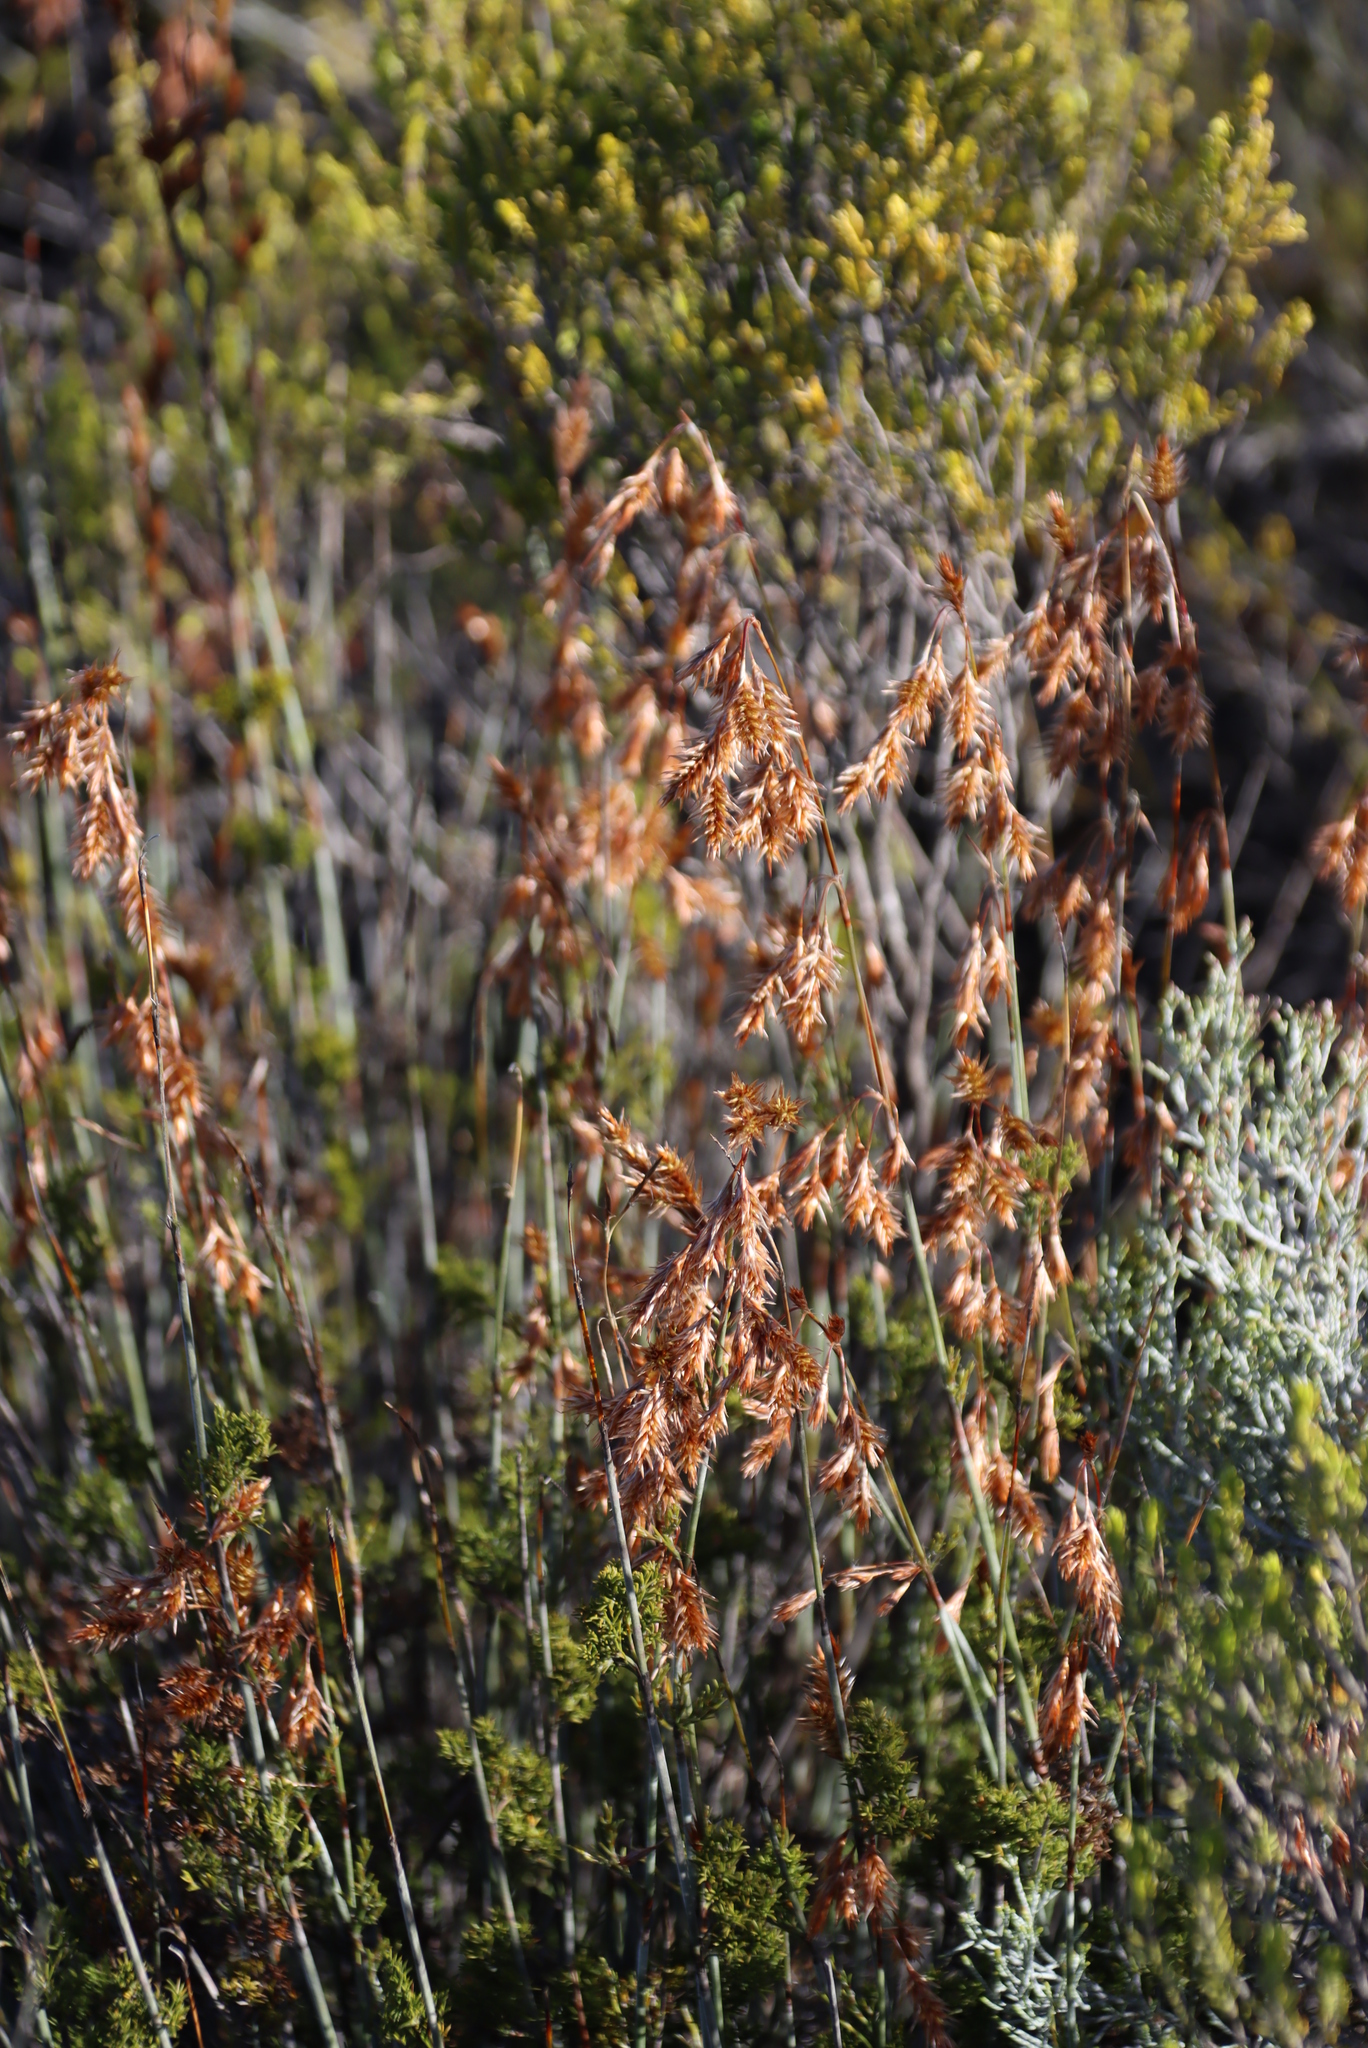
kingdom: Plantae
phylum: Tracheophyta
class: Liliopsida
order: Poales
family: Restionaceae
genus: Thamnochortus
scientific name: Thamnochortus rigidus
